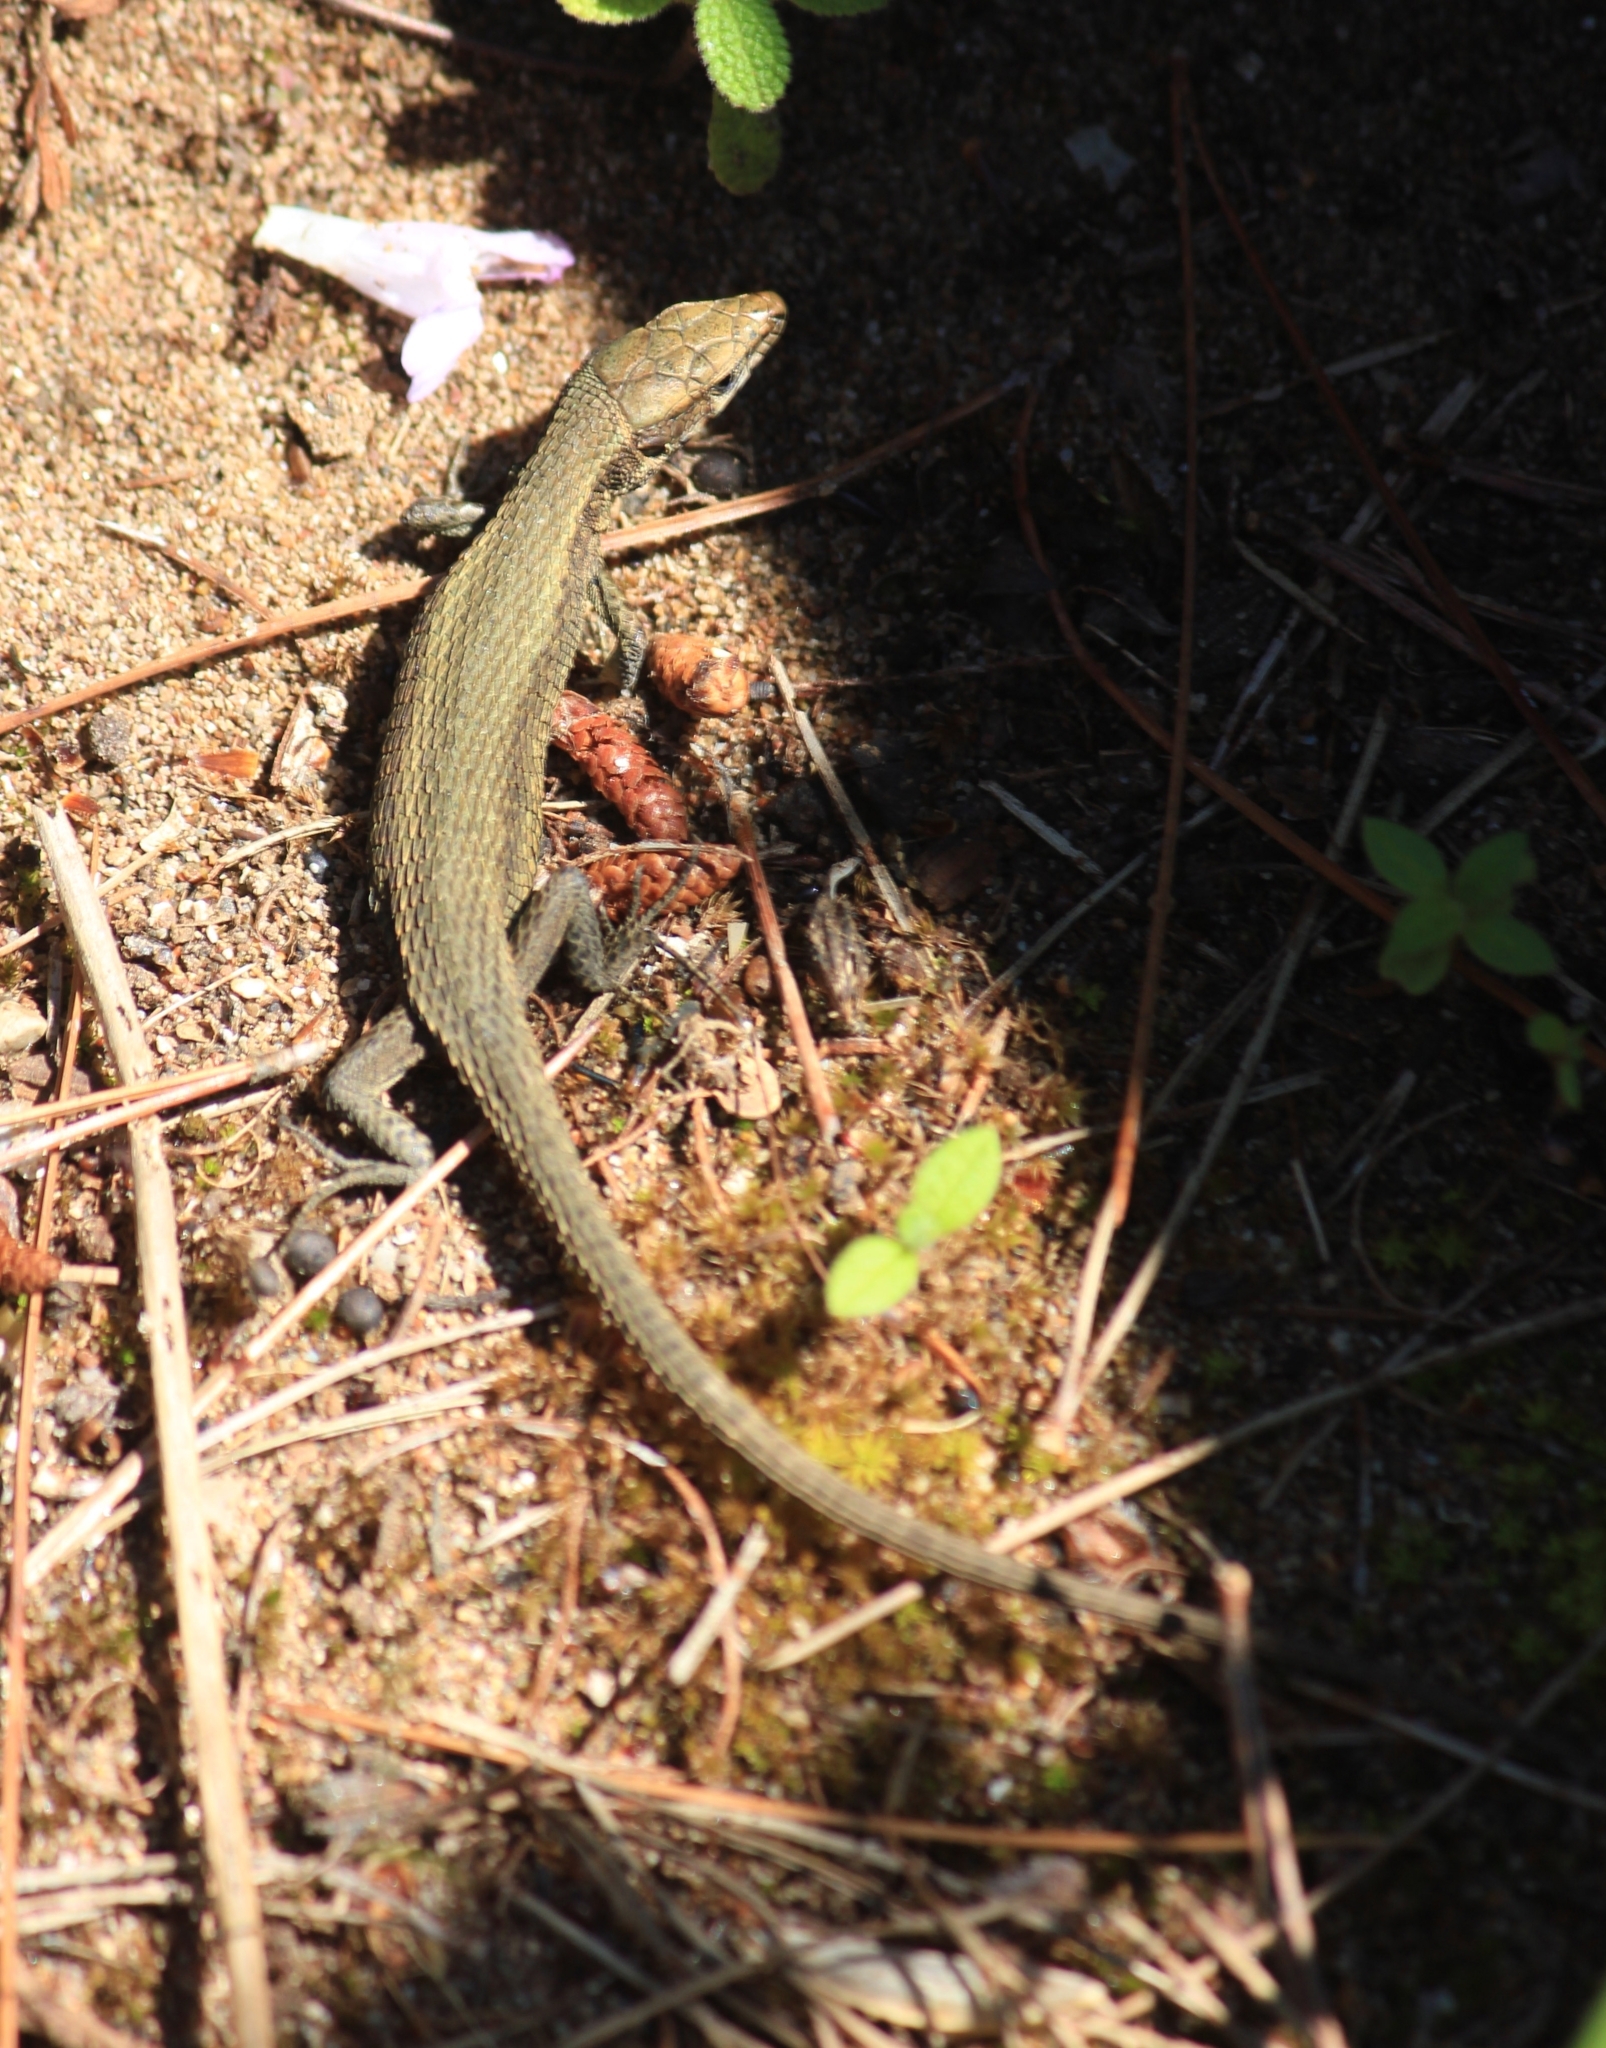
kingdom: Animalia
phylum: Chordata
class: Squamata
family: Lacertidae
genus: Algyroides
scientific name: Algyroides moreoticus
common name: Greek algyroides
